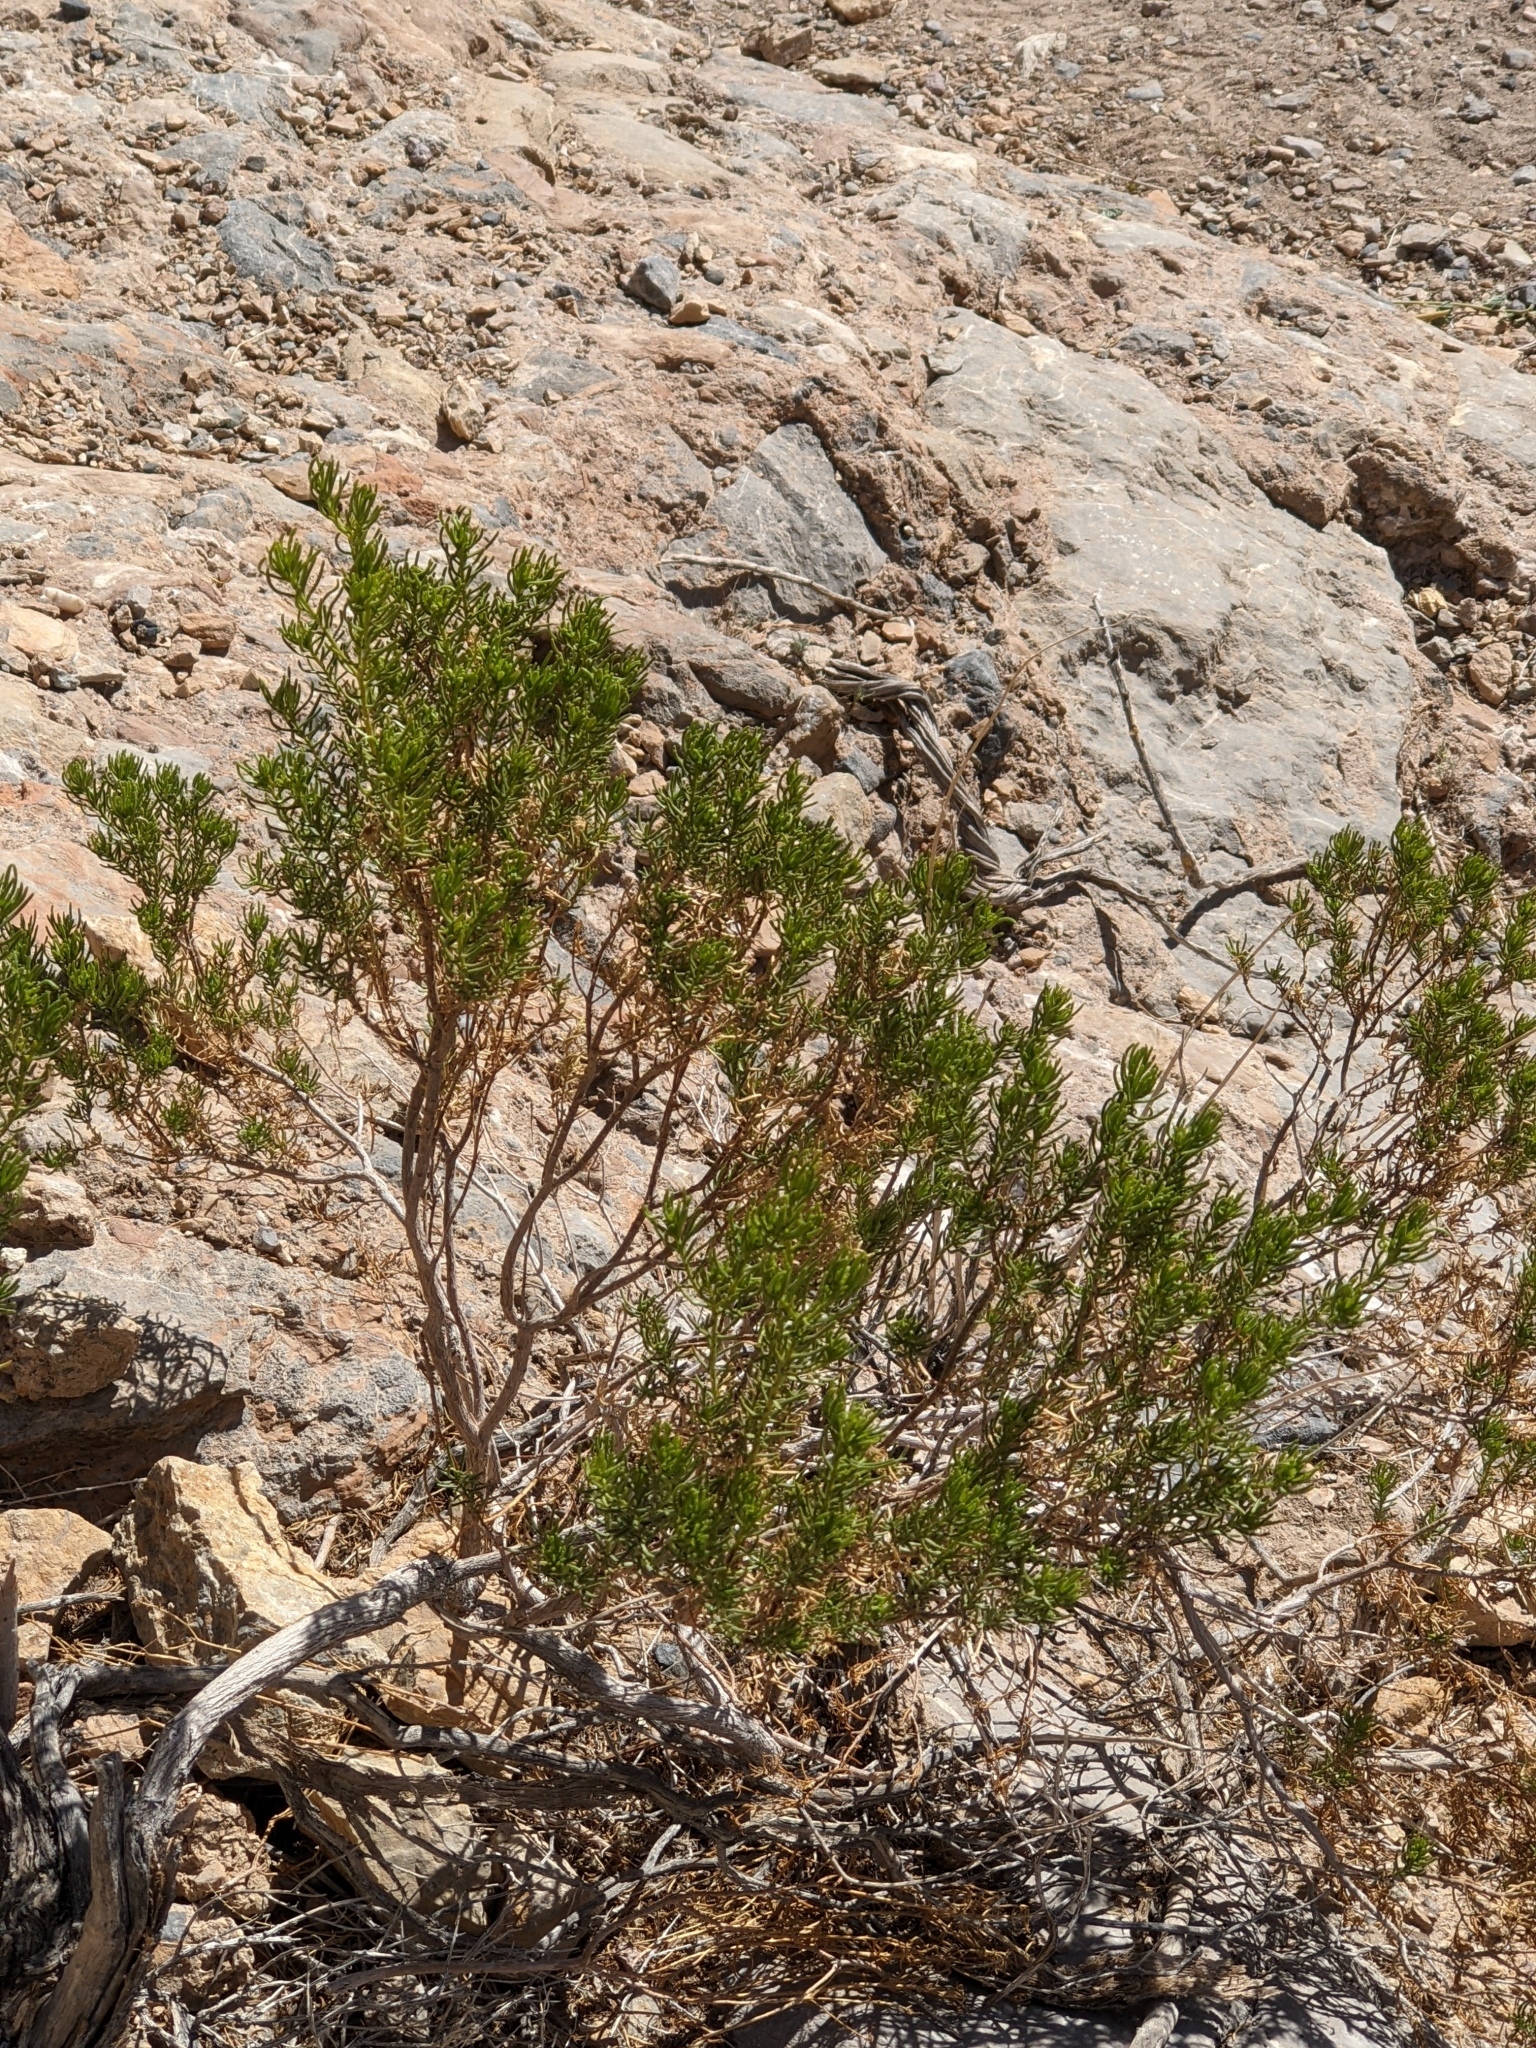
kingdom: Plantae
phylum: Tracheophyta
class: Magnoliopsida
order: Asterales
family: Asteraceae
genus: Peucephyllum
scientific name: Peucephyllum schottii
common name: Pygmy-cedar
